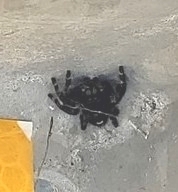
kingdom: Animalia
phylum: Arthropoda
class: Arachnida
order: Araneae
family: Salticidae
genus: Phidippus
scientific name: Phidippus audax
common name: Bold jumper
